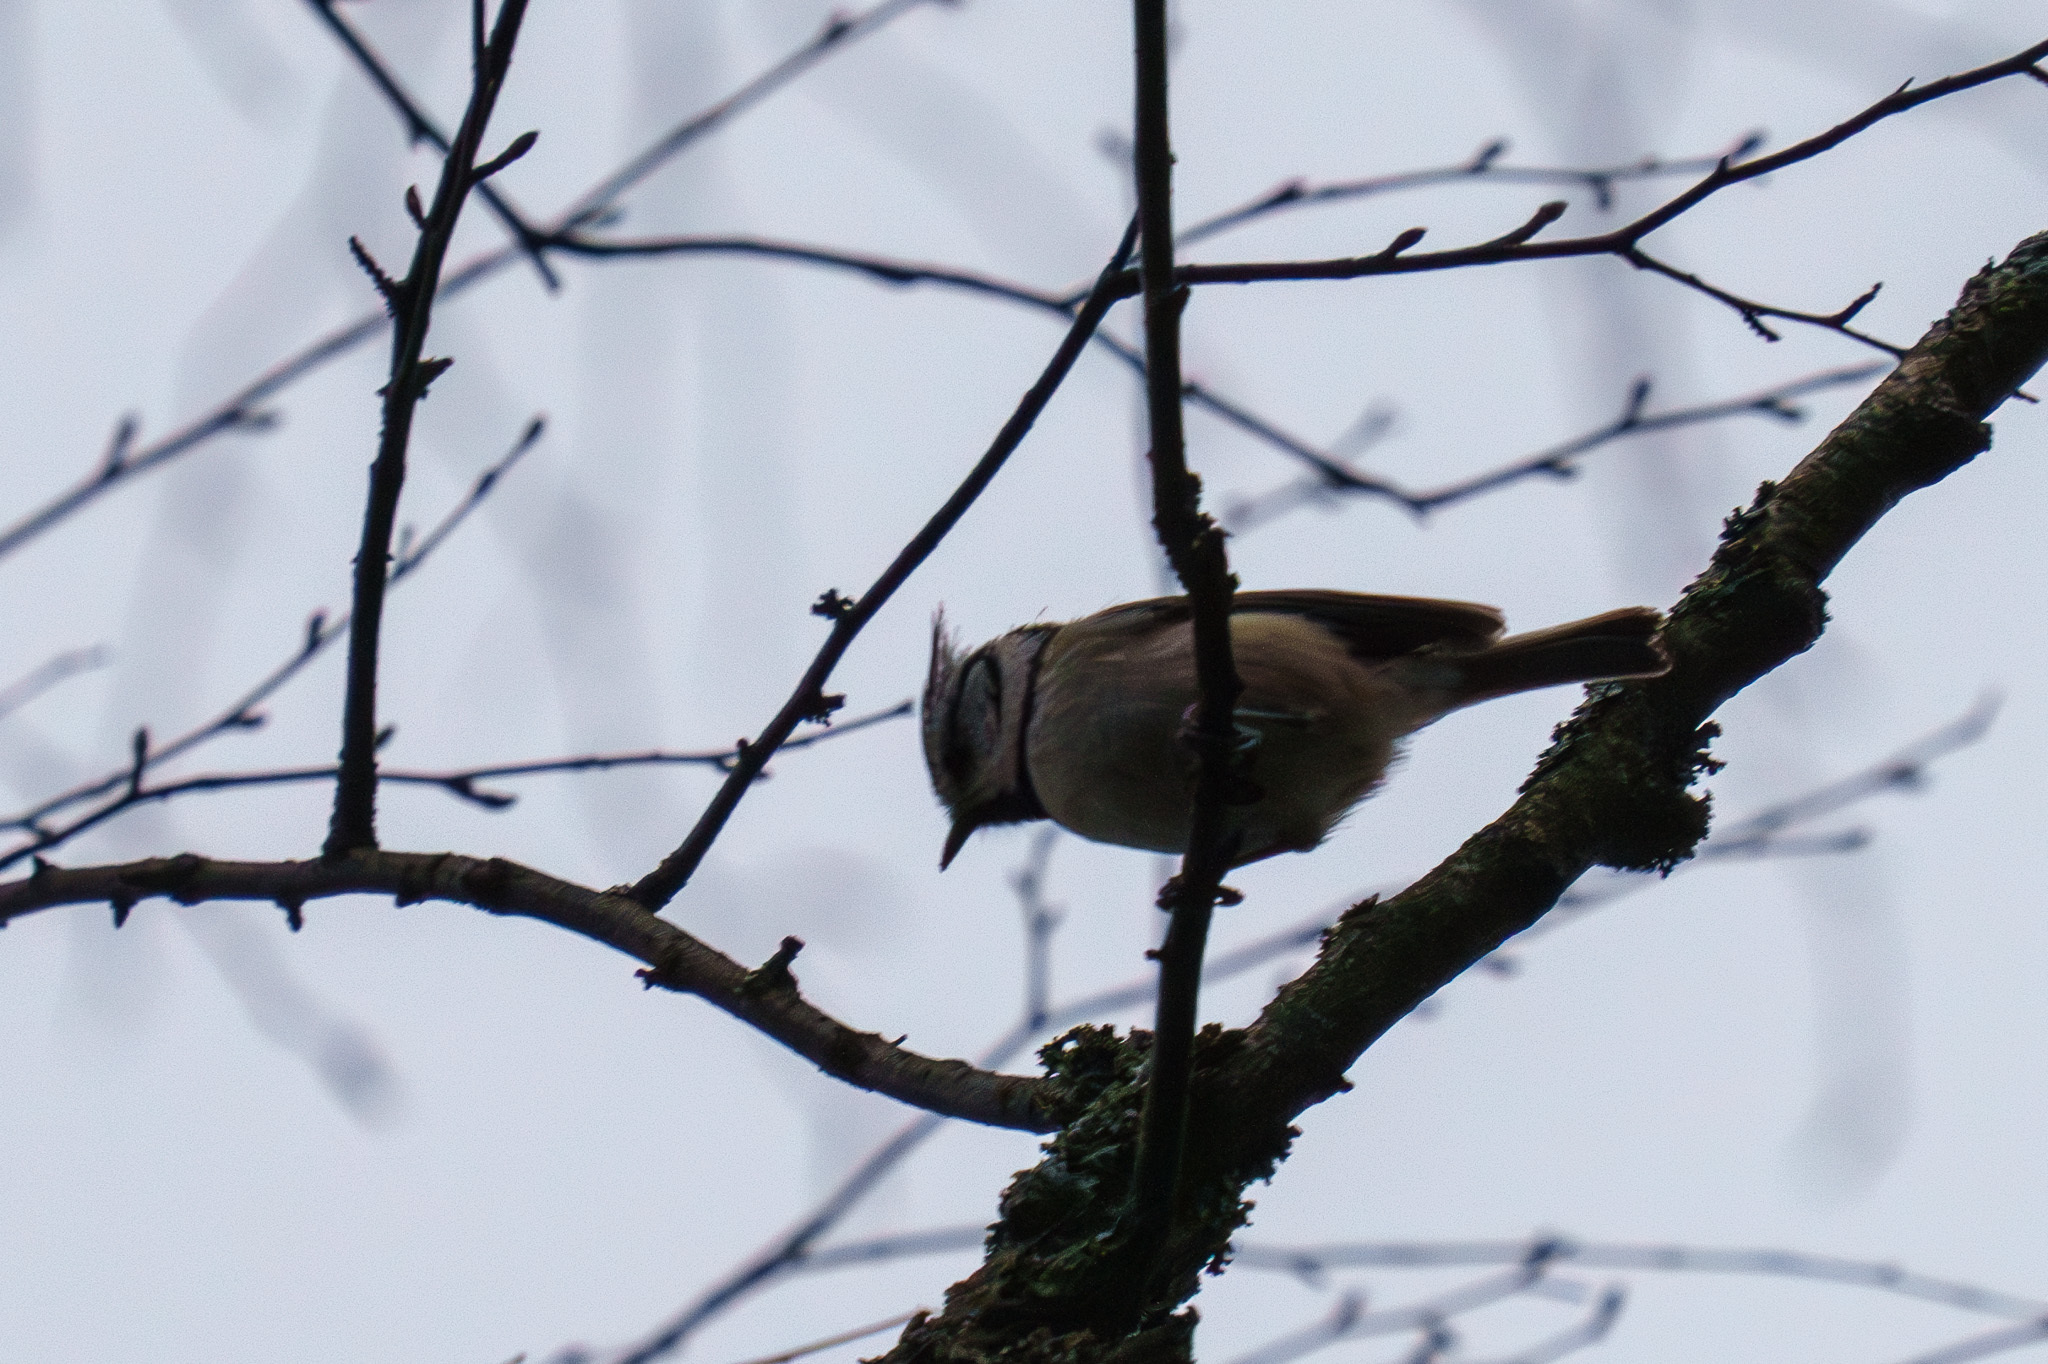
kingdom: Animalia
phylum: Chordata
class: Aves
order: Passeriformes
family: Paridae
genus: Lophophanes
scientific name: Lophophanes cristatus
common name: European crested tit
